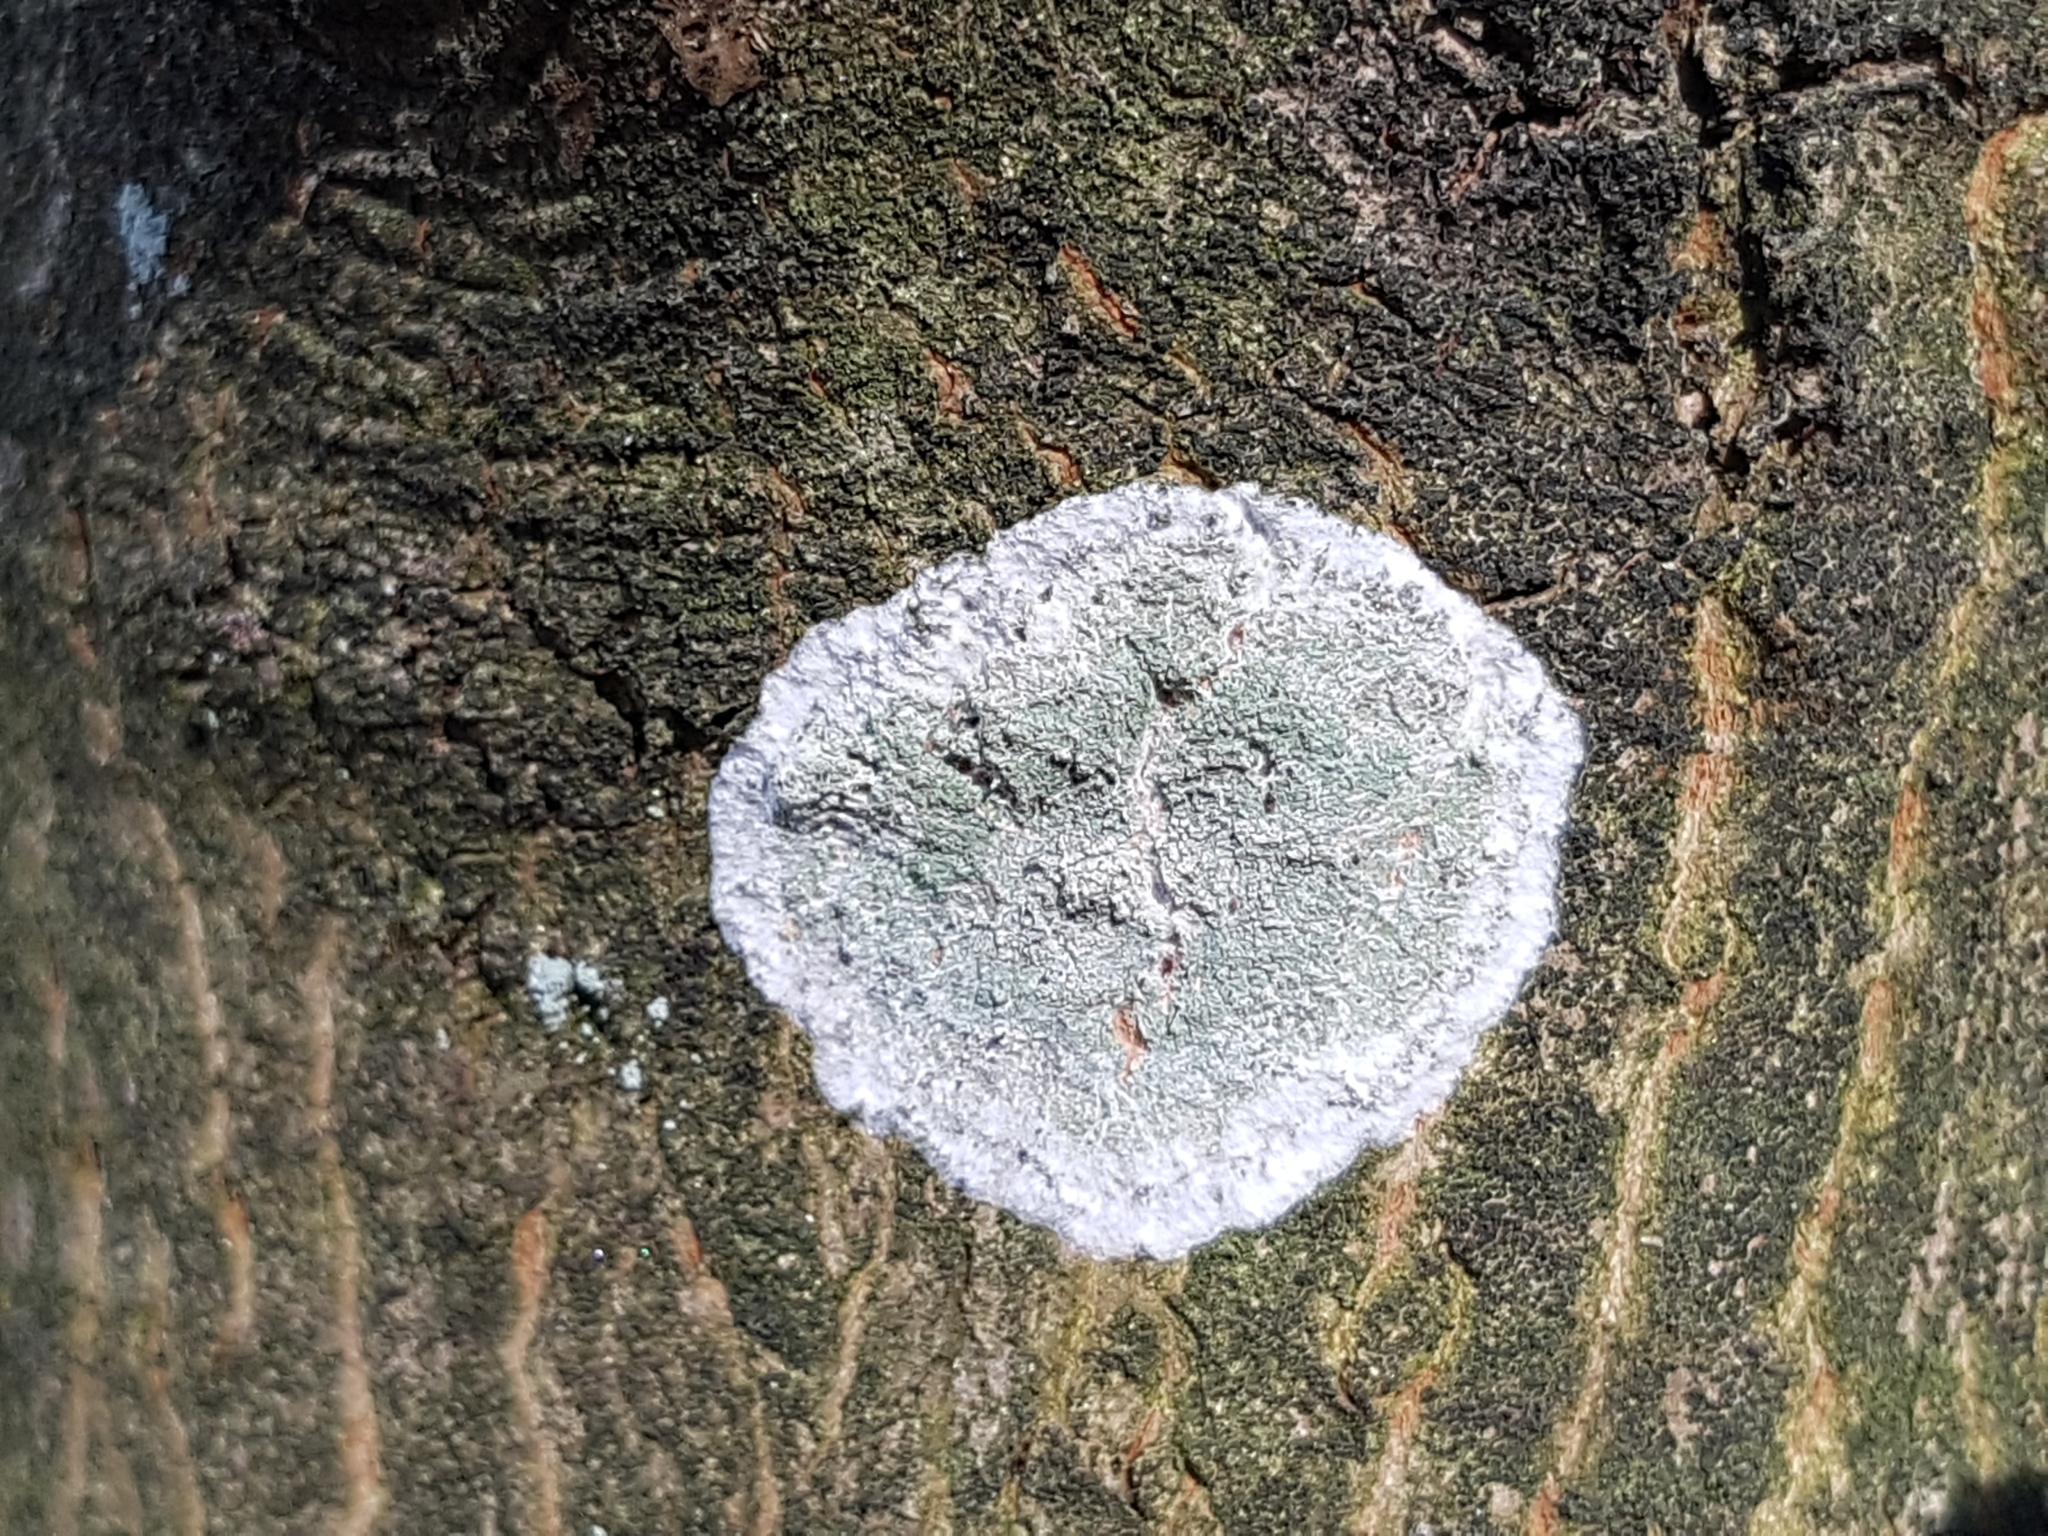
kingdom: Fungi
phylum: Ascomycota
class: Lecanoromycetes
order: Ostropales
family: Phlyctidaceae
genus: Phlyctis
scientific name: Phlyctis argena
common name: Whitewash lichen
